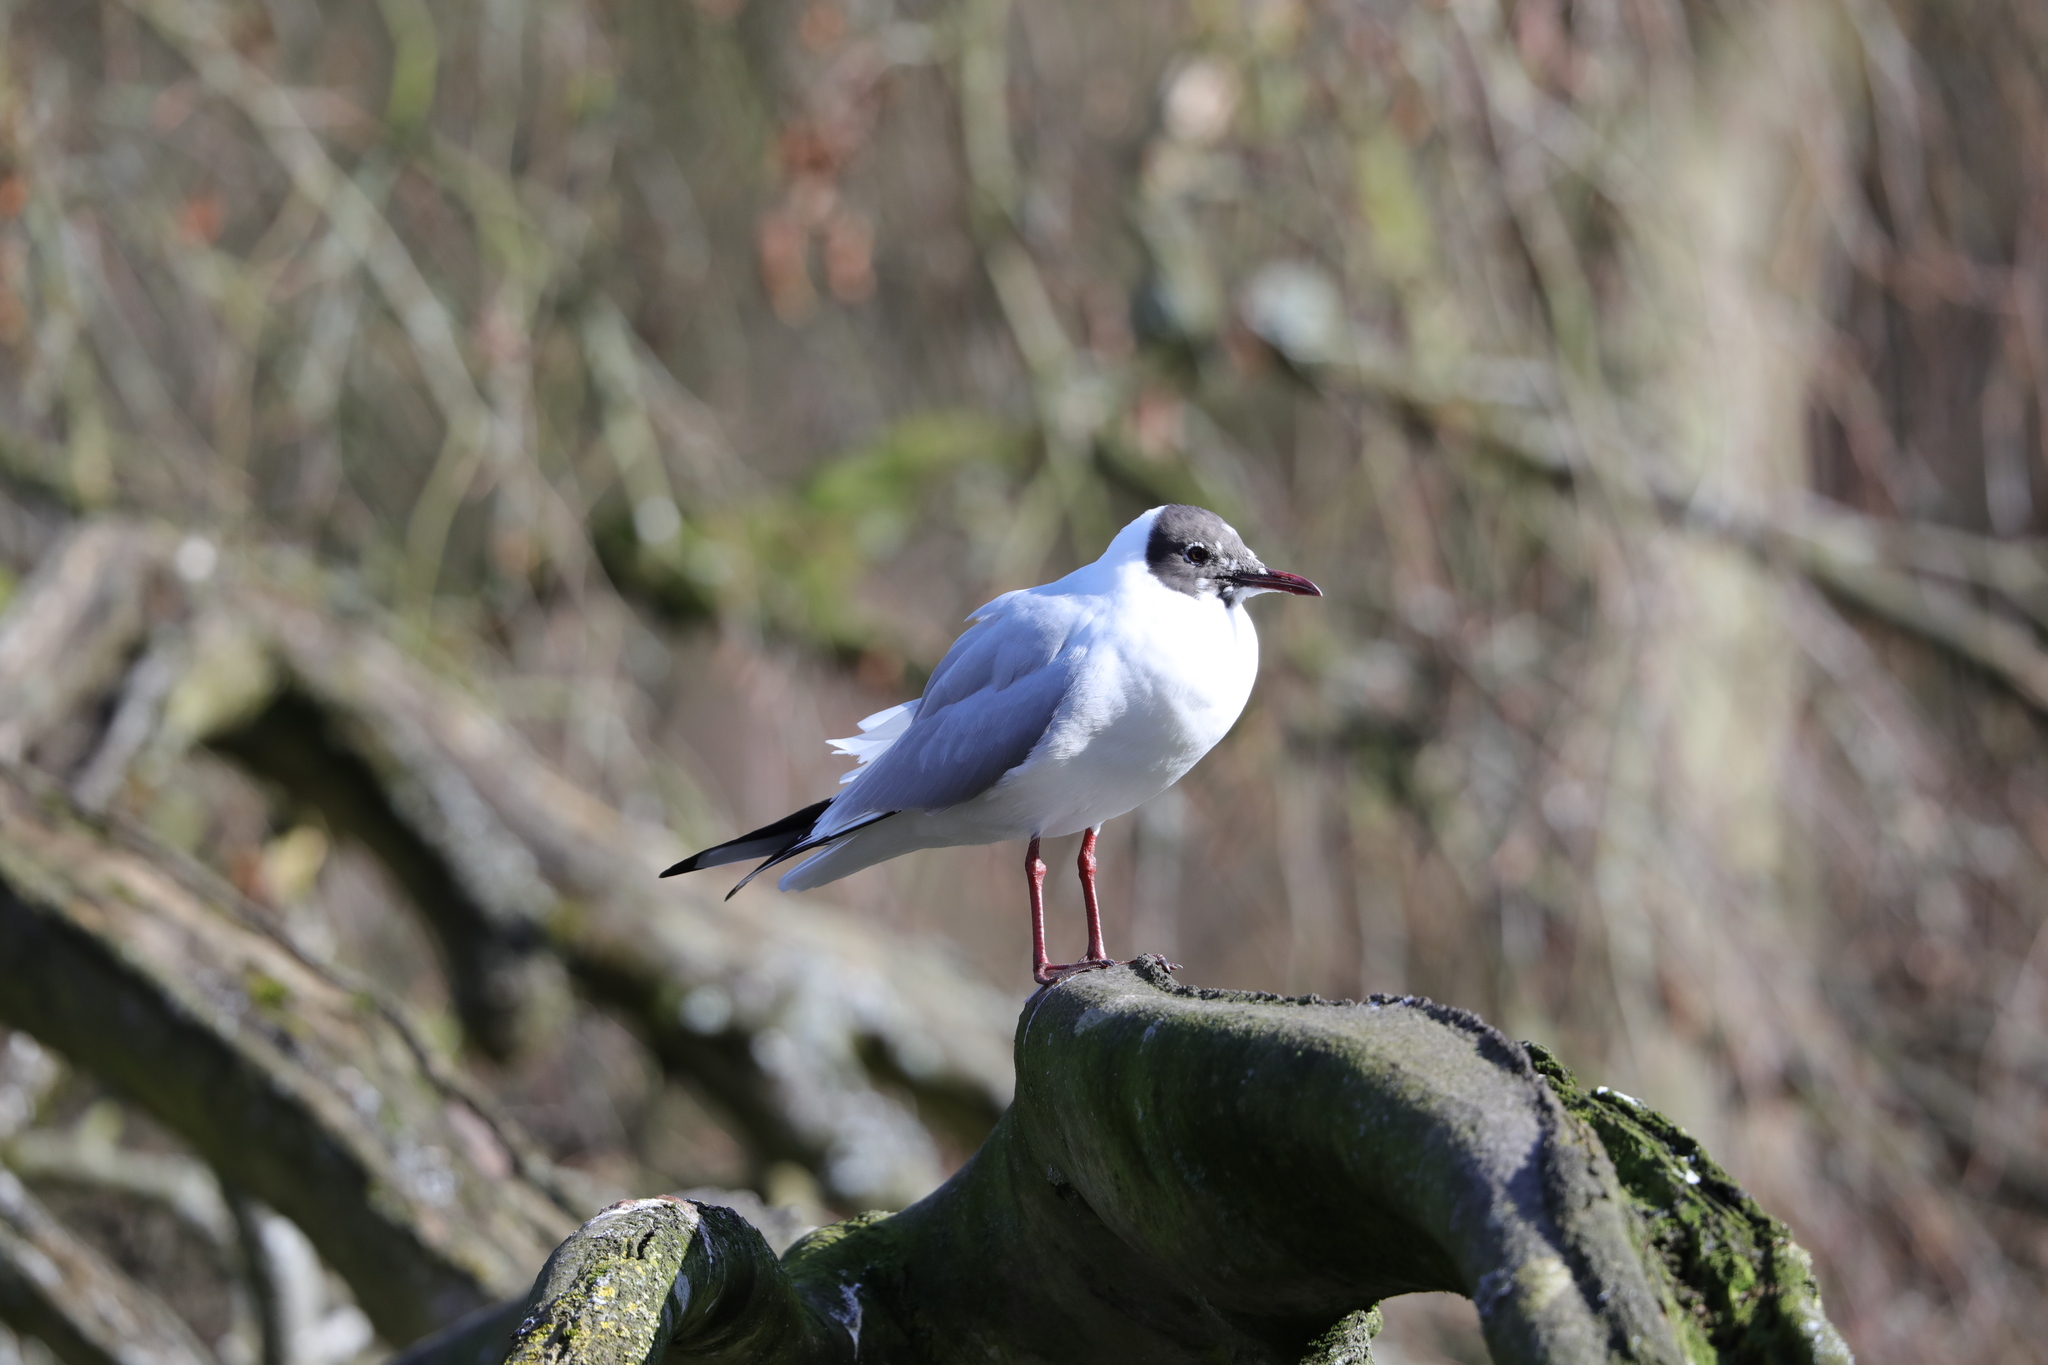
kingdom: Animalia
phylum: Chordata
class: Aves
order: Charadriiformes
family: Laridae
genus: Chroicocephalus
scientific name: Chroicocephalus ridibundus
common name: Black-headed gull
